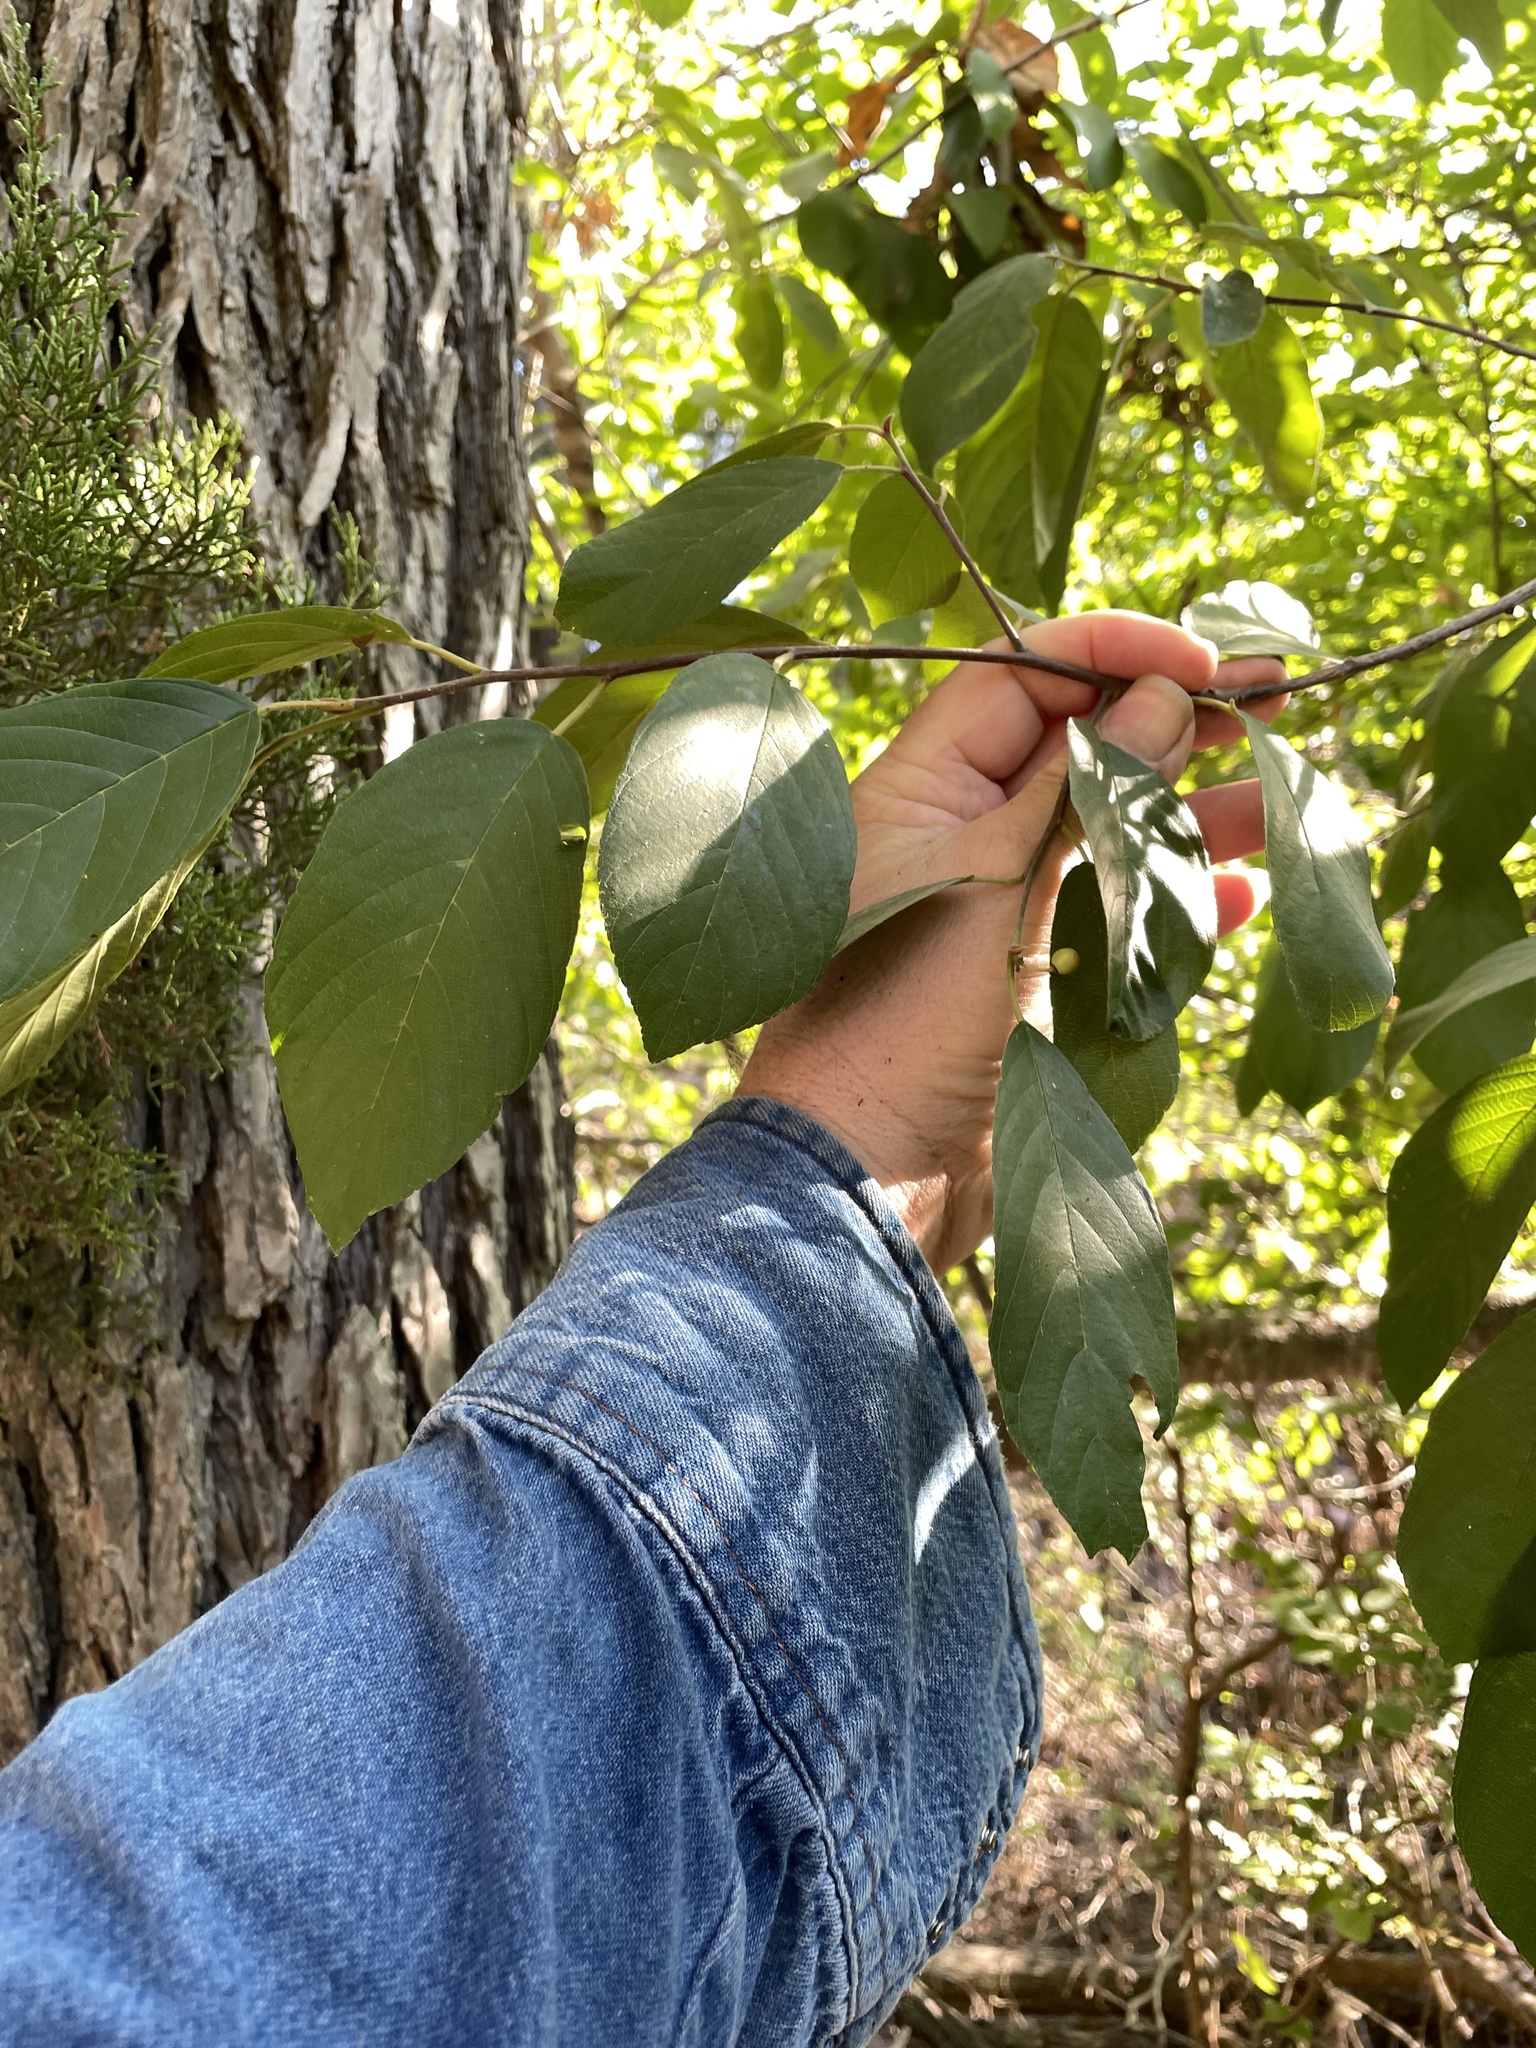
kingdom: Plantae
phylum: Tracheophyta
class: Magnoliopsida
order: Rosales
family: Rhamnaceae
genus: Frangula
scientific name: Frangula caroliniana
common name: Carolina buckthorn
